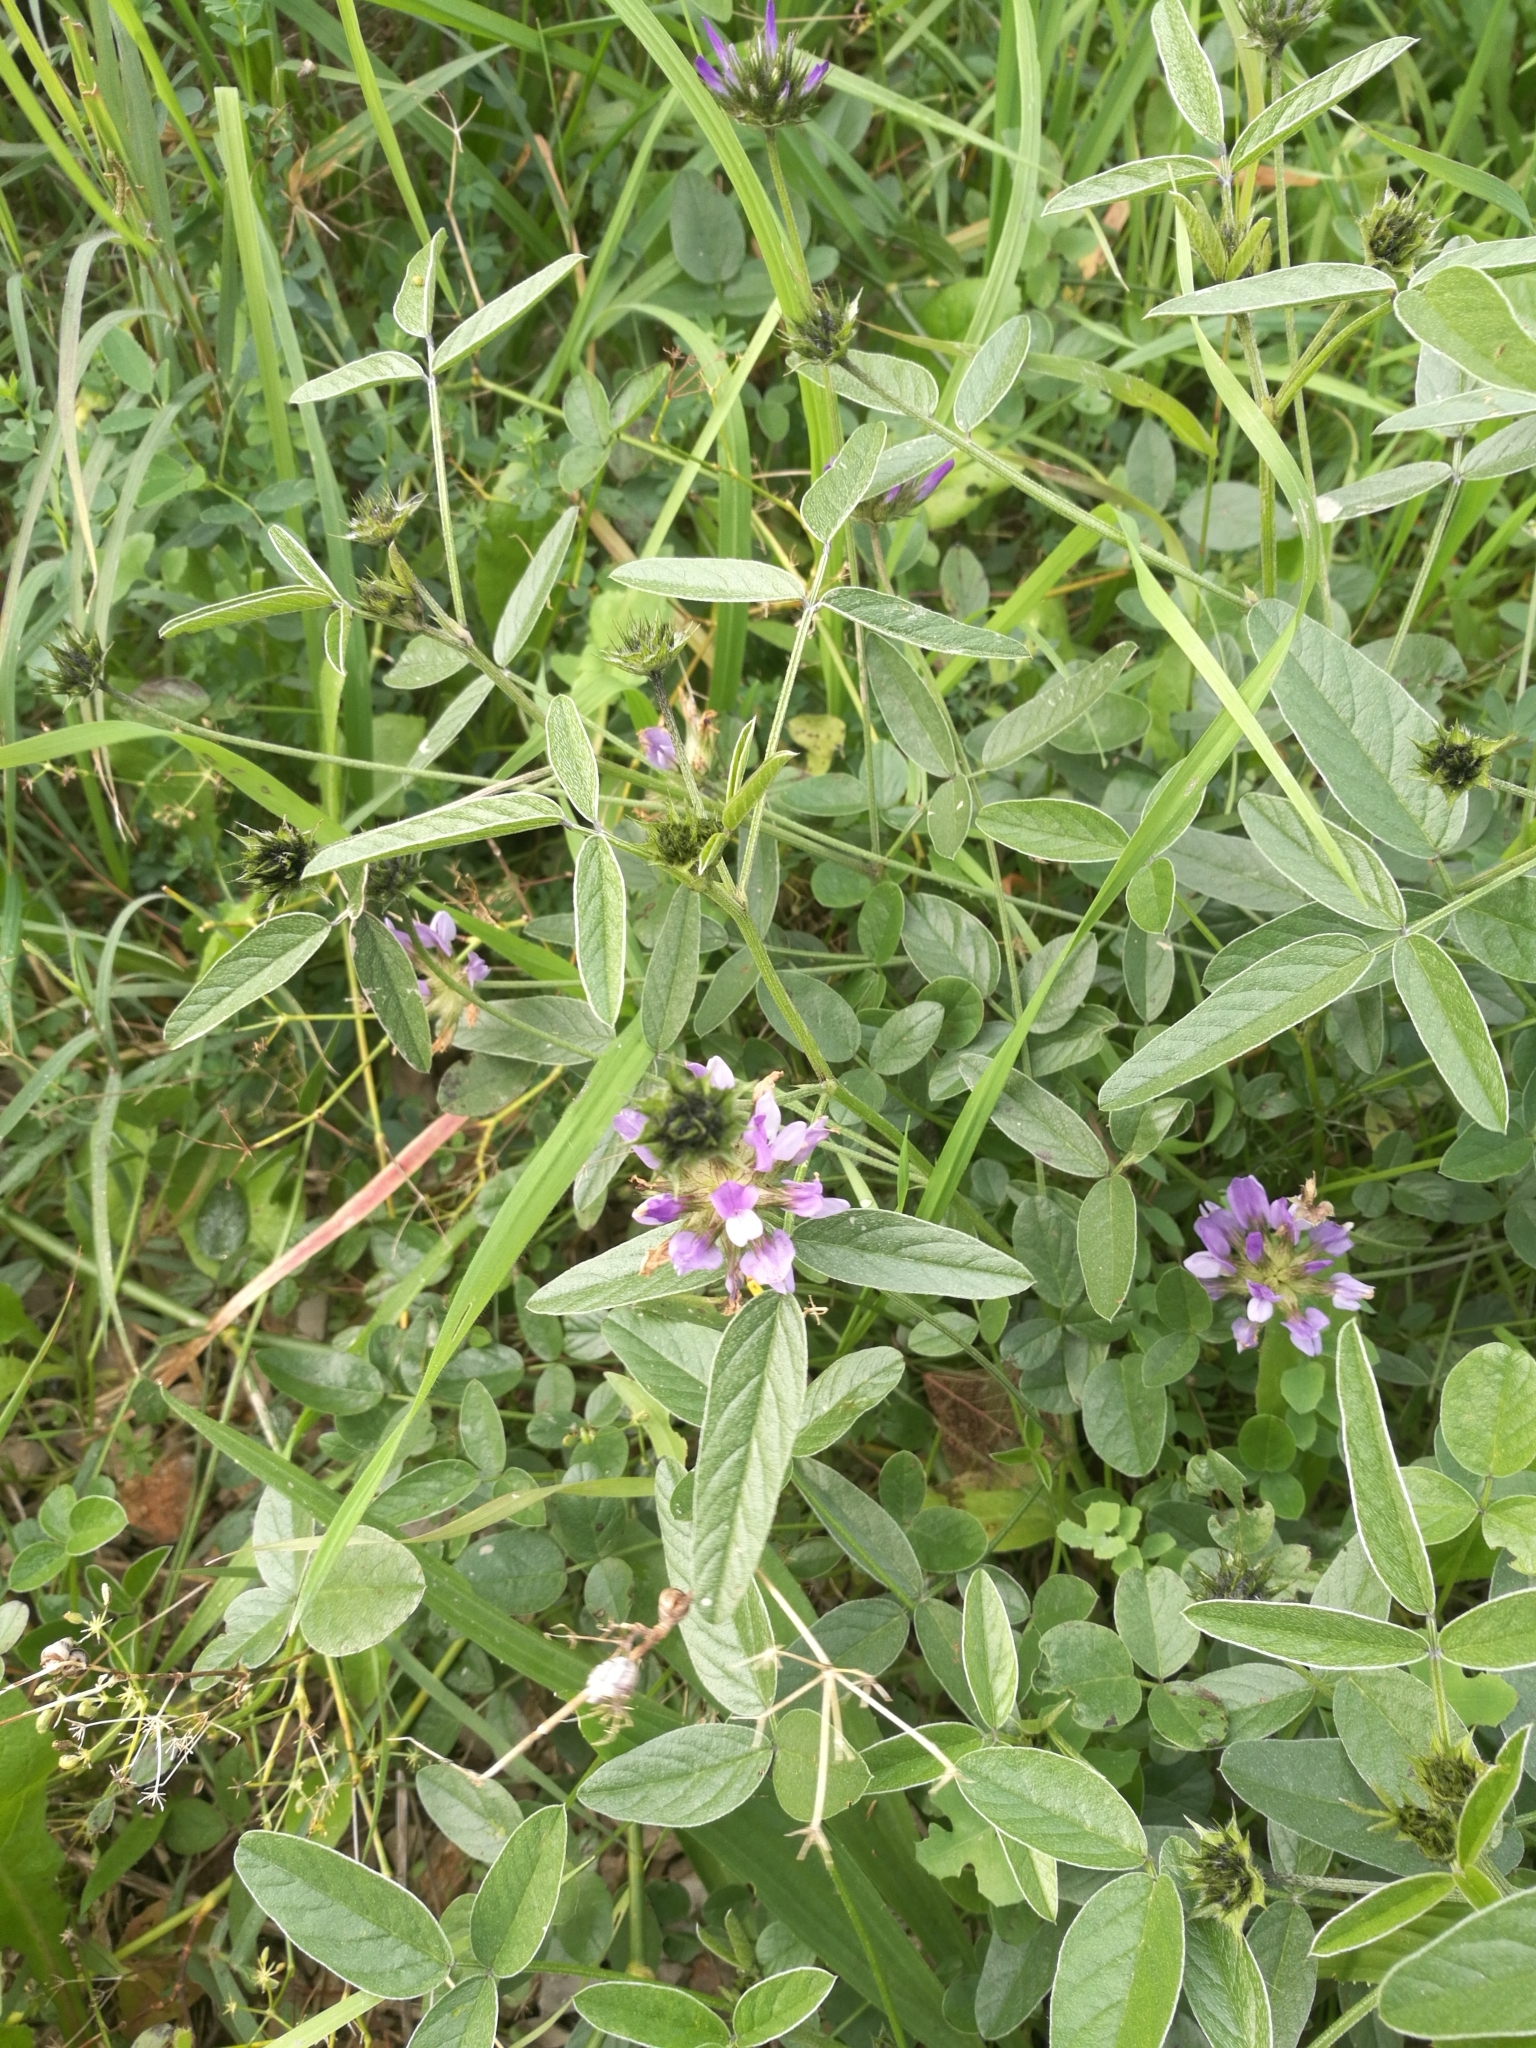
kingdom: Plantae
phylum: Tracheophyta
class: Magnoliopsida
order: Fabales
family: Fabaceae
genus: Bituminaria
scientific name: Bituminaria bituminosa
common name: Arabian pea
